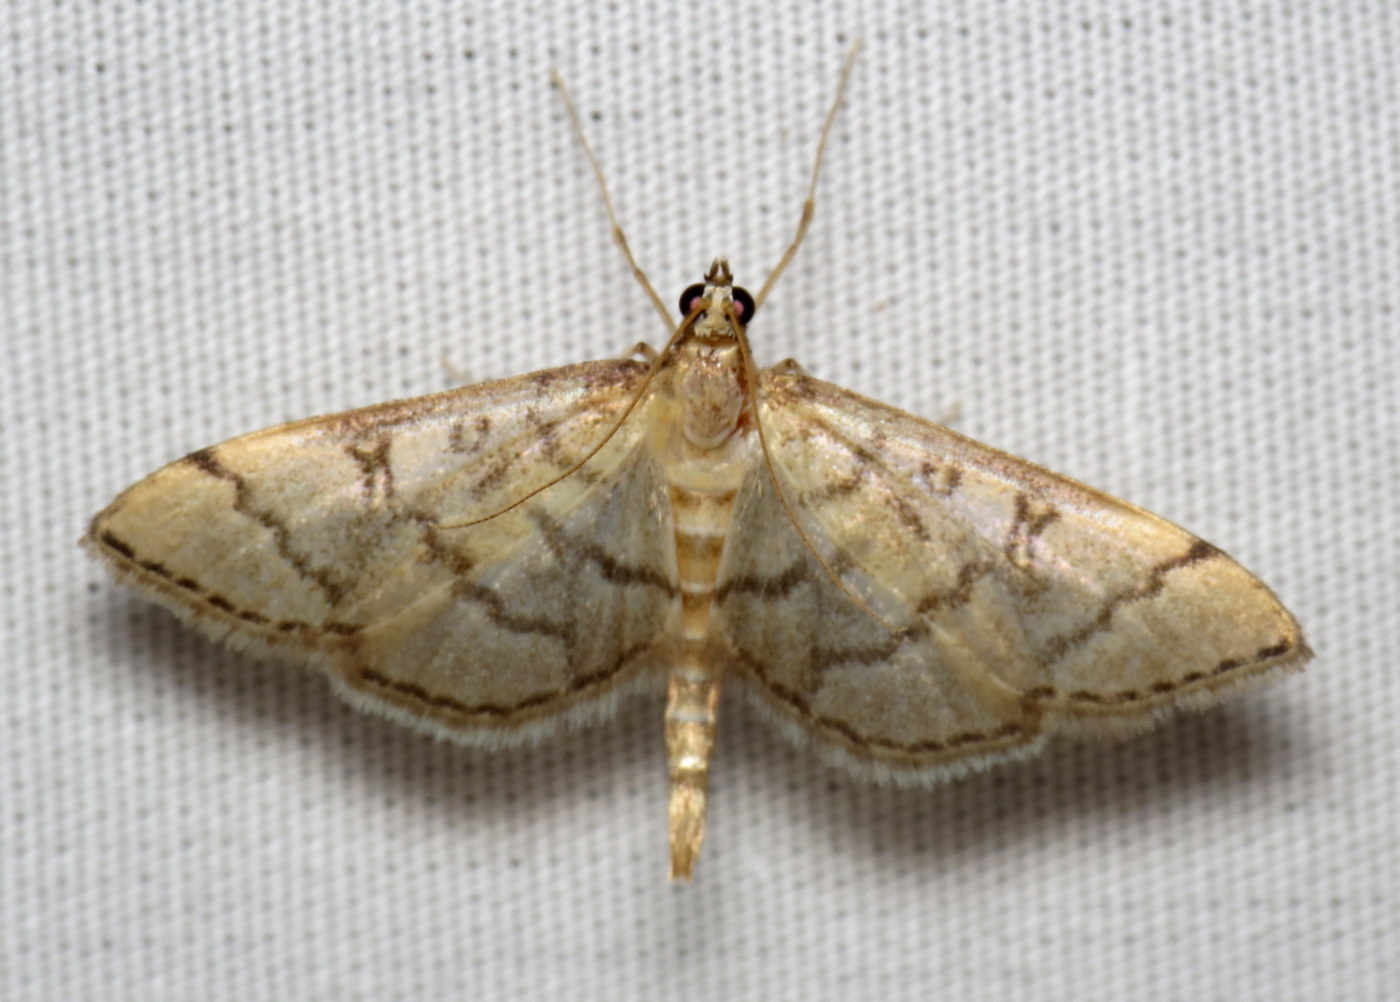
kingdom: Animalia
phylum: Arthropoda
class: Insecta
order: Lepidoptera
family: Crambidae
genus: Lamprosema
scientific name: Lamprosema Blepharomastix ranalis
